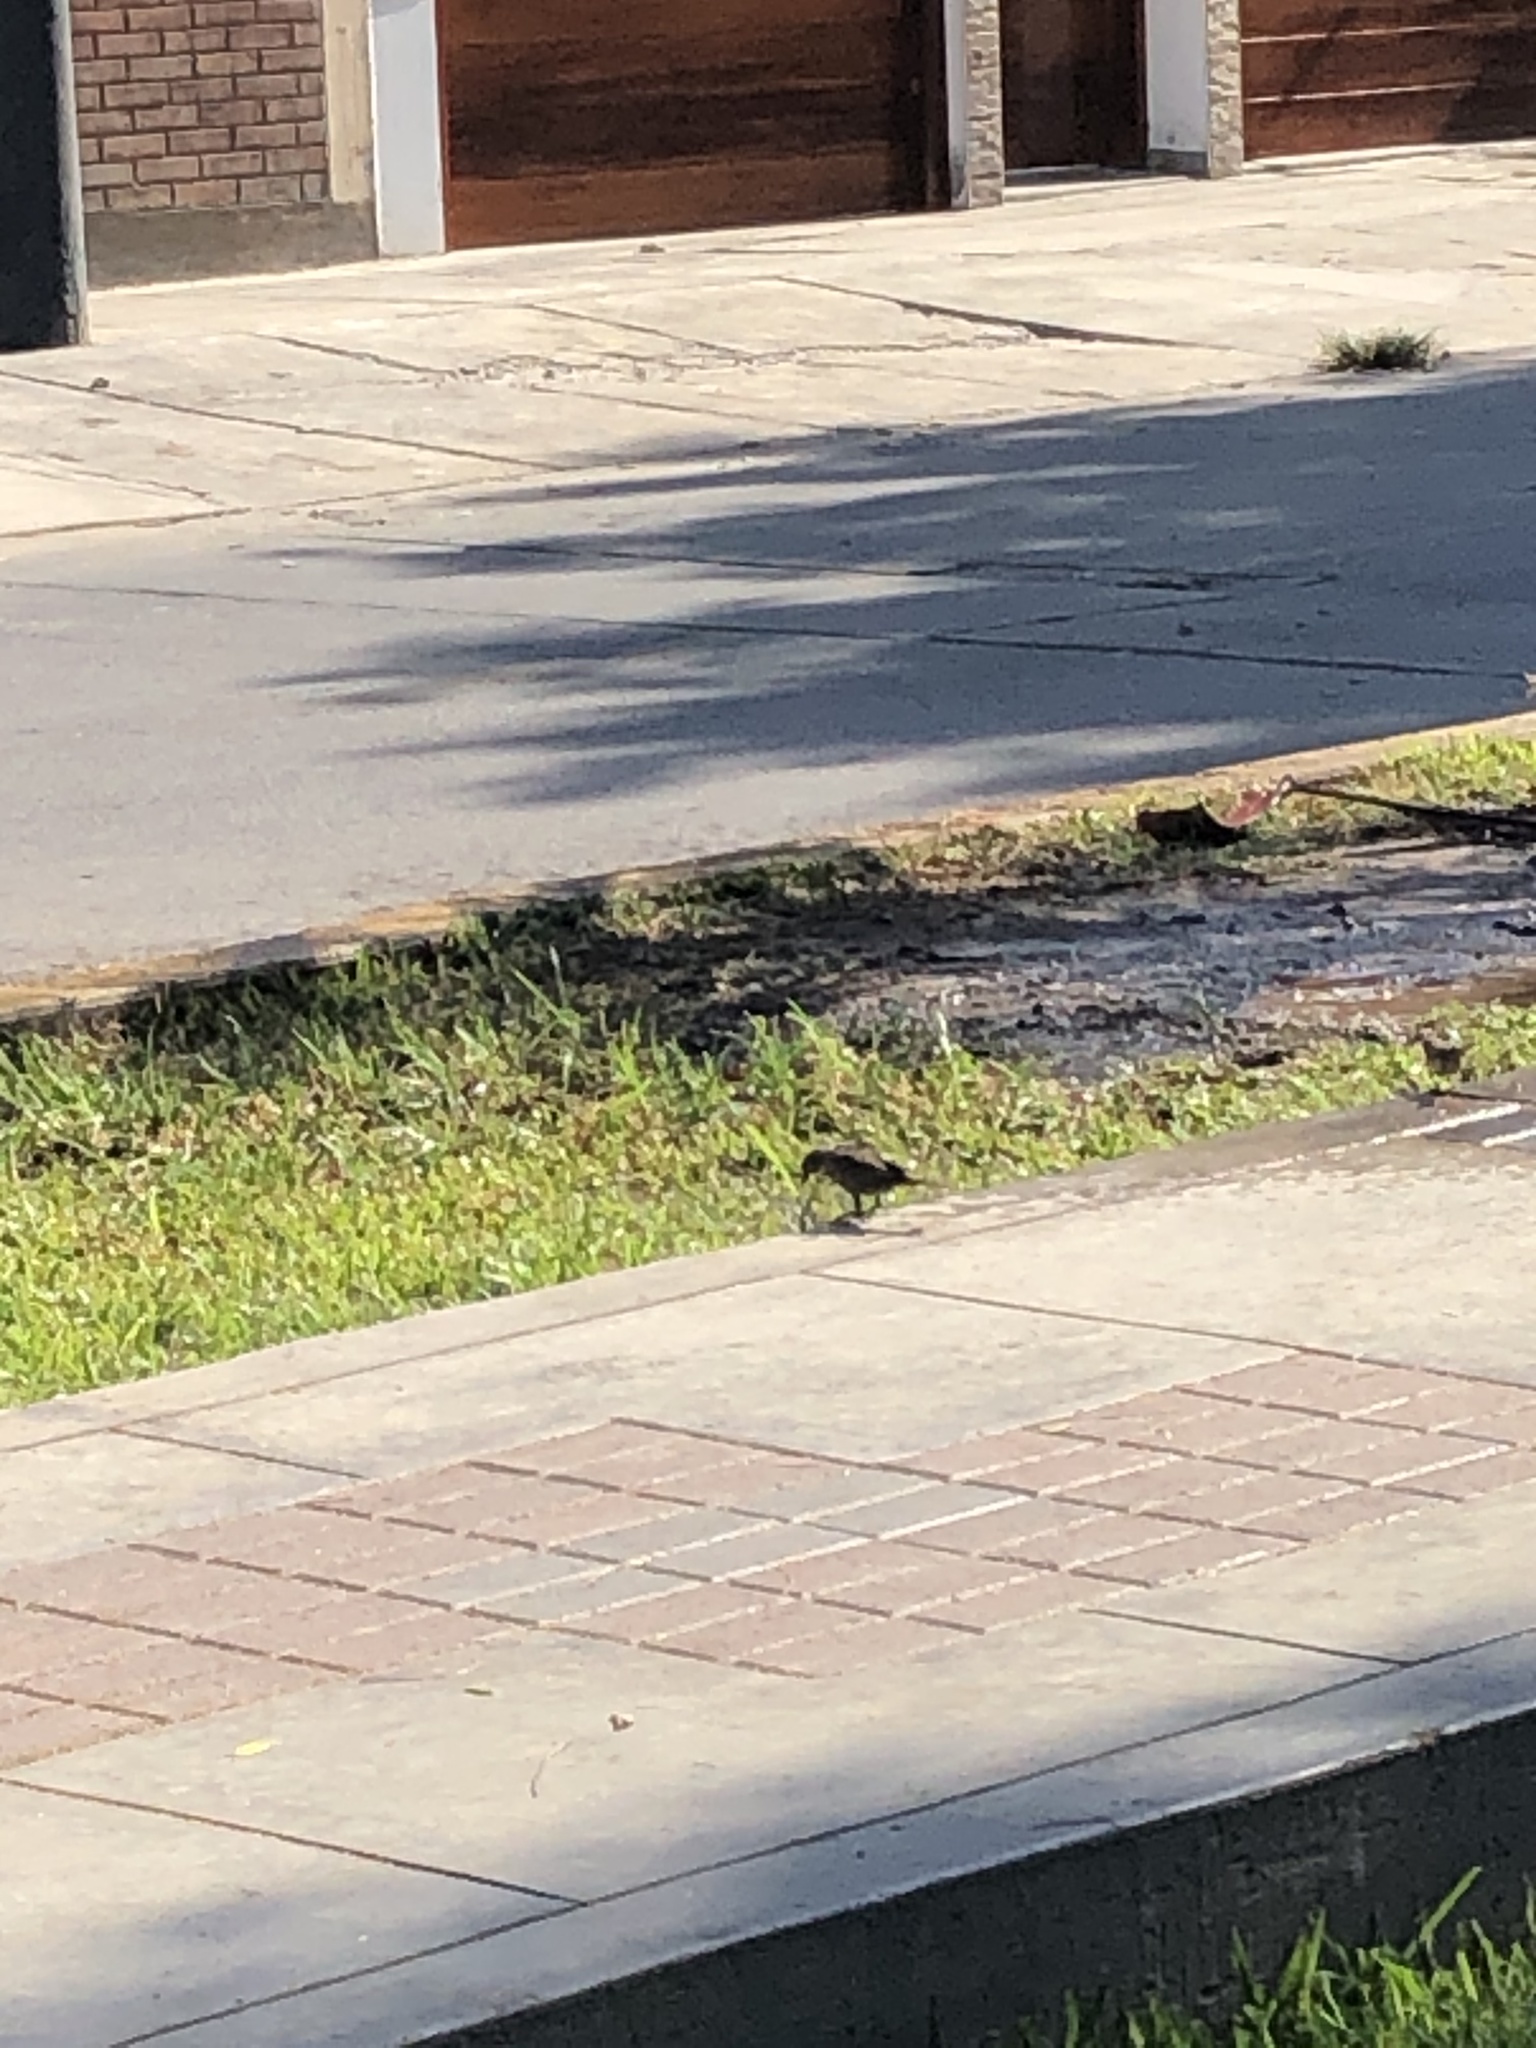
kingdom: Animalia
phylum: Chordata
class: Aves
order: Passeriformes
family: Icteridae
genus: Molothrus
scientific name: Molothrus bonariensis
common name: Shiny cowbird
